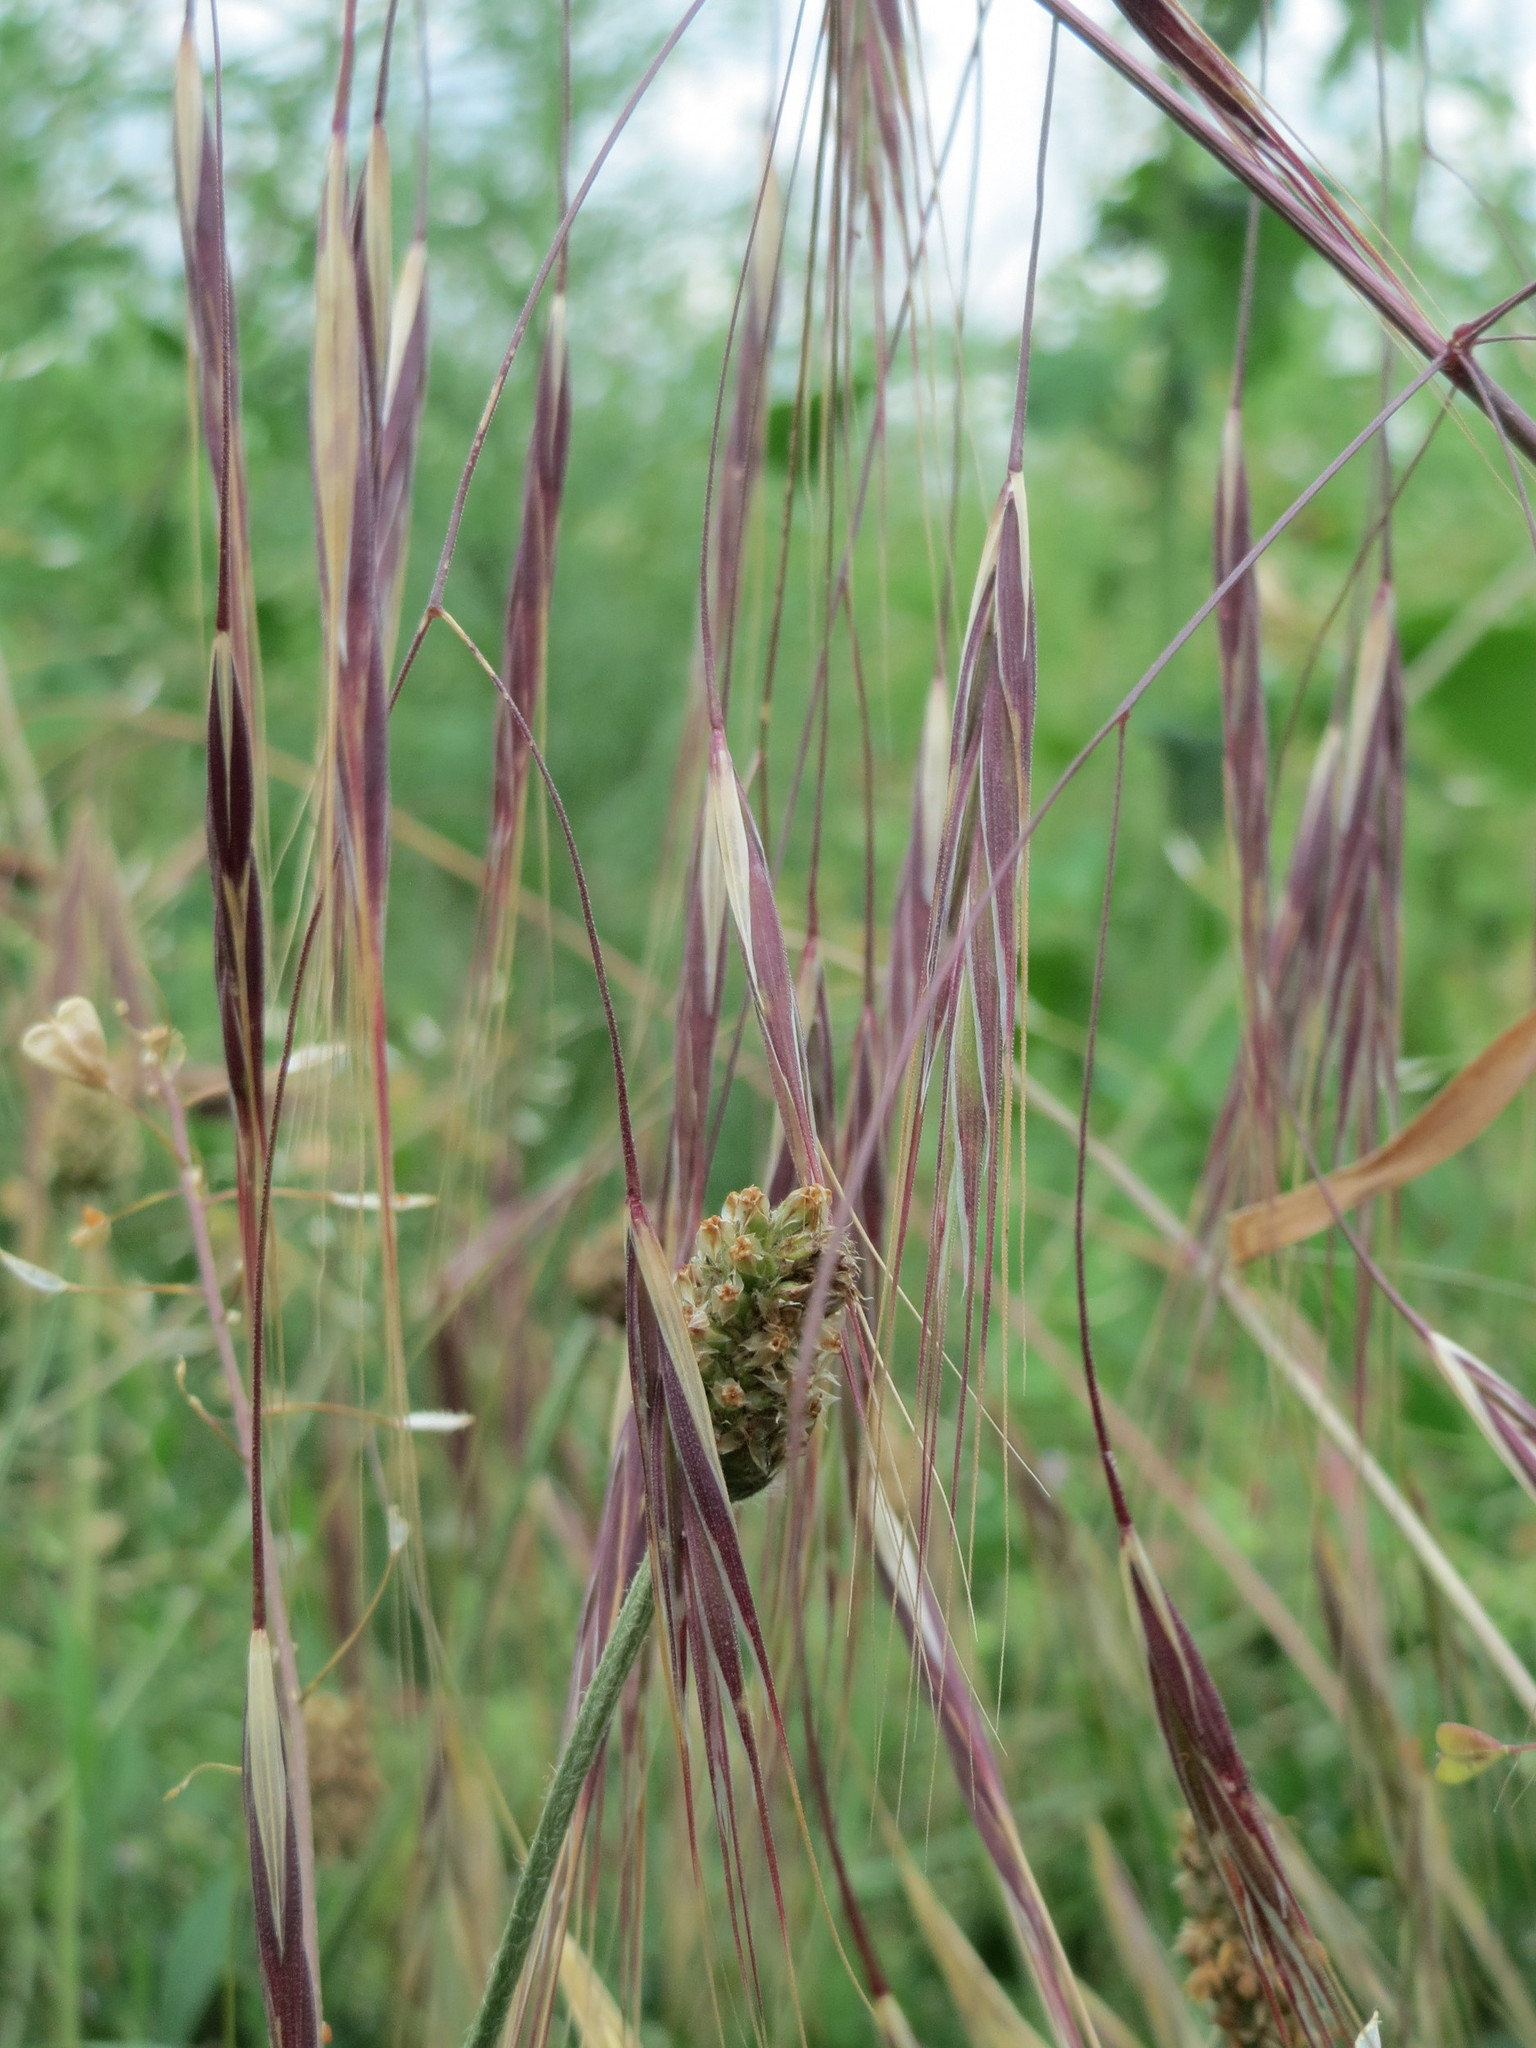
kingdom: Plantae
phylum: Tracheophyta
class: Liliopsida
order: Poales
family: Poaceae
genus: Bromus
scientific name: Bromus sterilis
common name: Poverty brome
